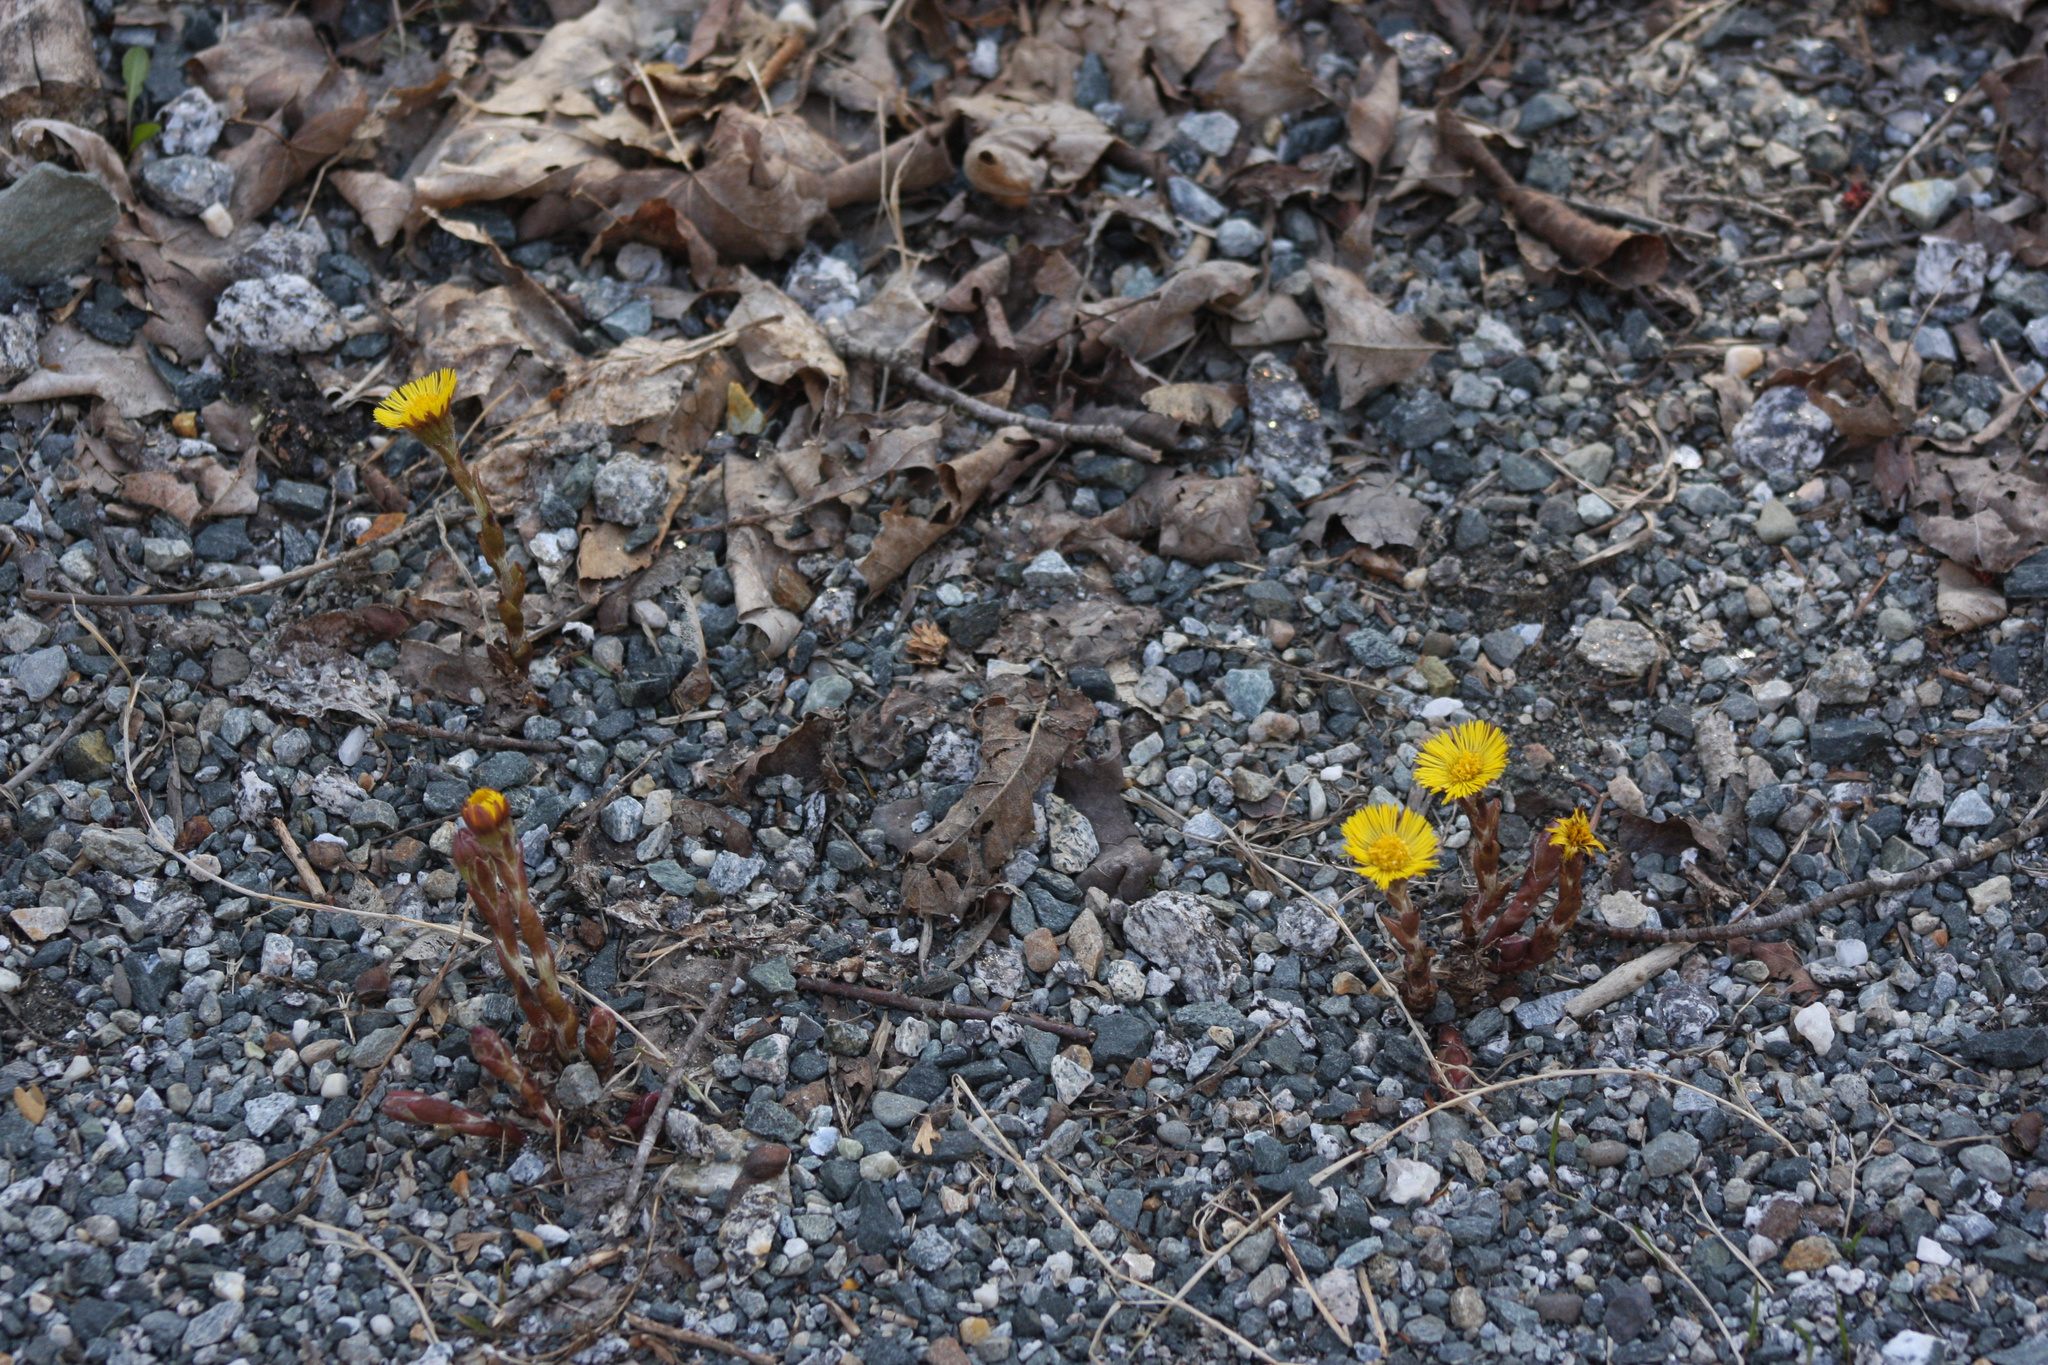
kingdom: Plantae
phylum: Tracheophyta
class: Magnoliopsida
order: Asterales
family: Asteraceae
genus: Tussilago
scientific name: Tussilago farfara
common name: Coltsfoot
